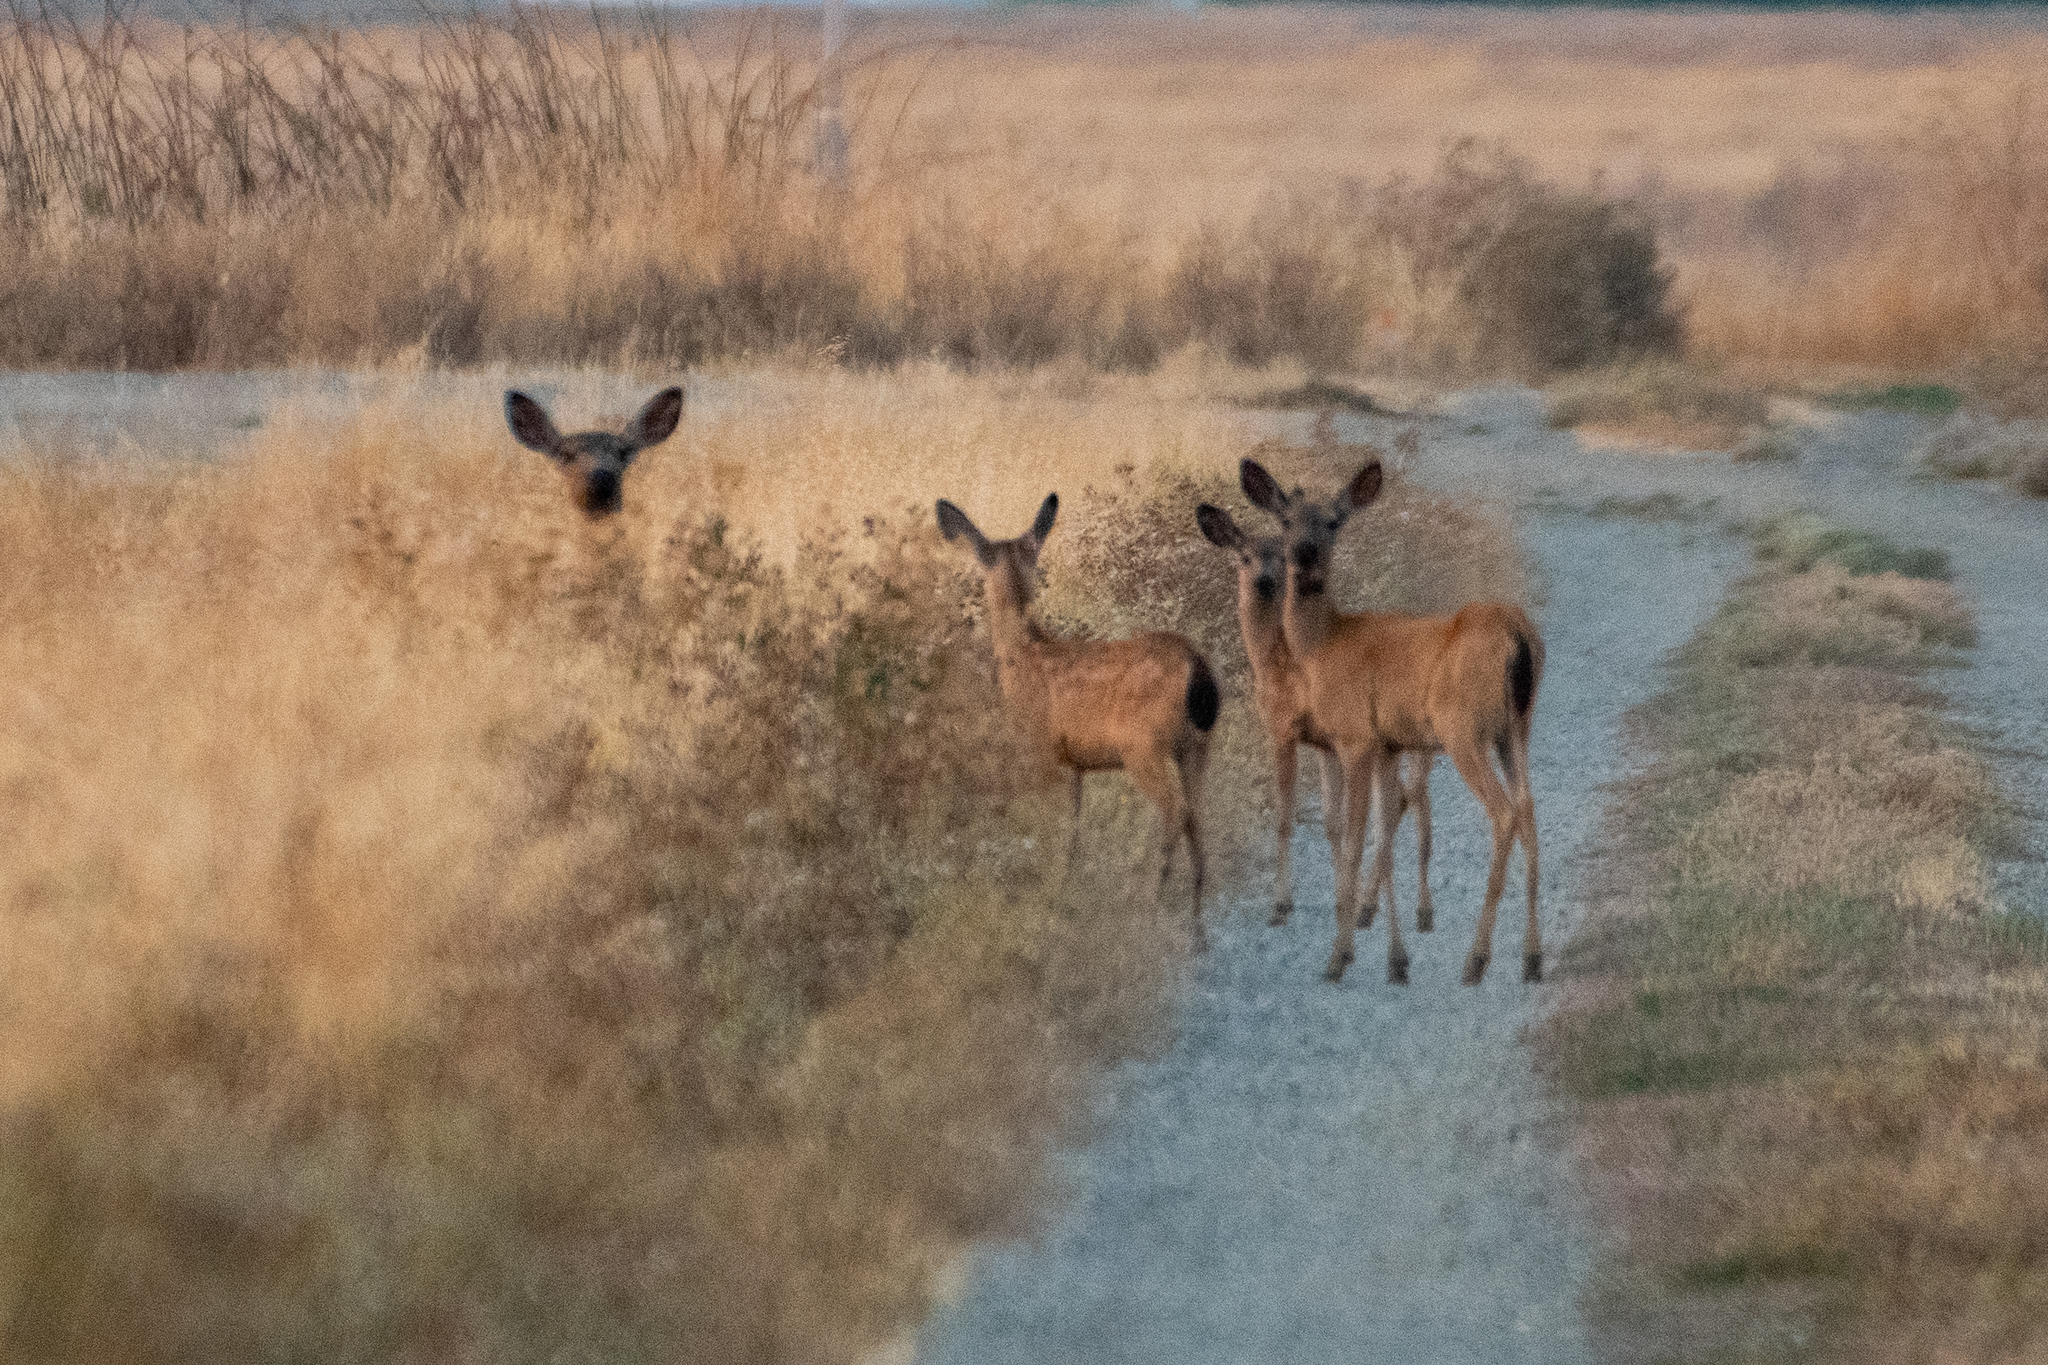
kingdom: Animalia
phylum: Chordata
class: Mammalia
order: Artiodactyla
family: Cervidae
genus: Odocoileus
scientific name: Odocoileus hemionus
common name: Mule deer
